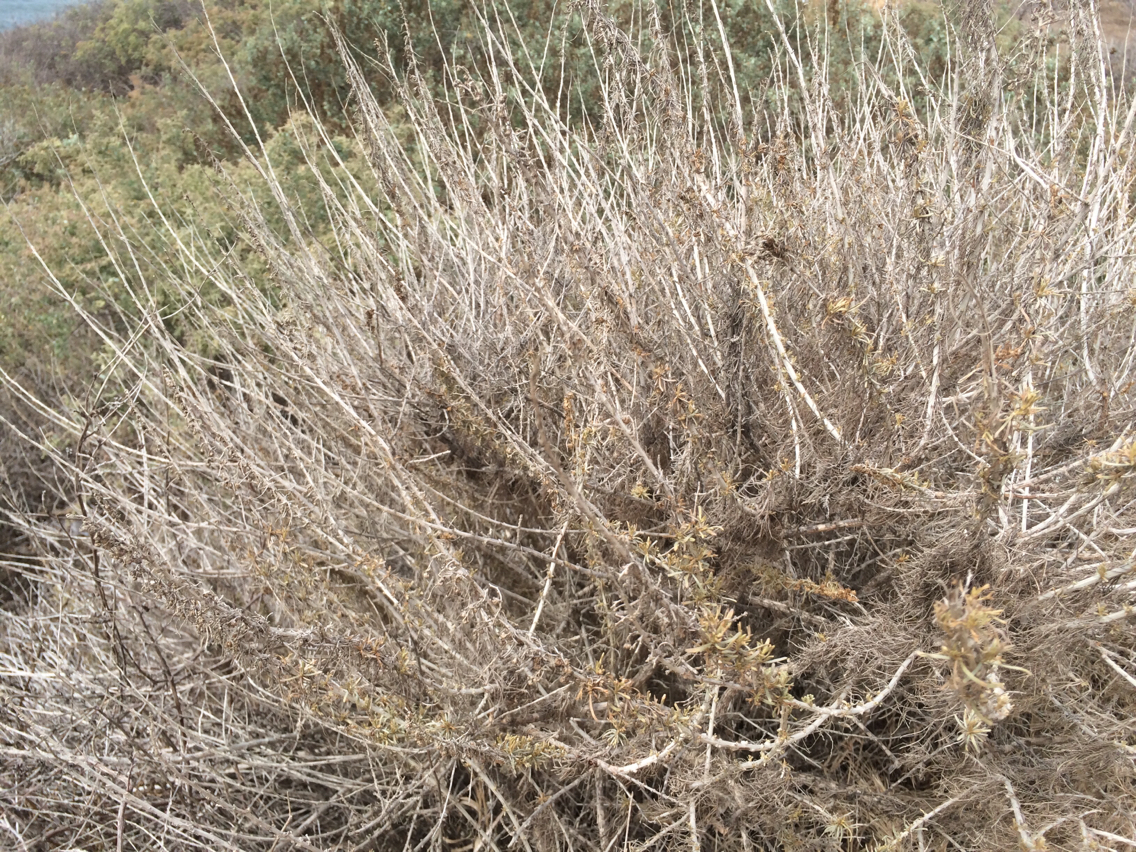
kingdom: Plantae
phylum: Tracheophyta
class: Magnoliopsida
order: Asterales
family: Asteraceae
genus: Artemisia
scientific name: Artemisia californica
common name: California sagebrush
